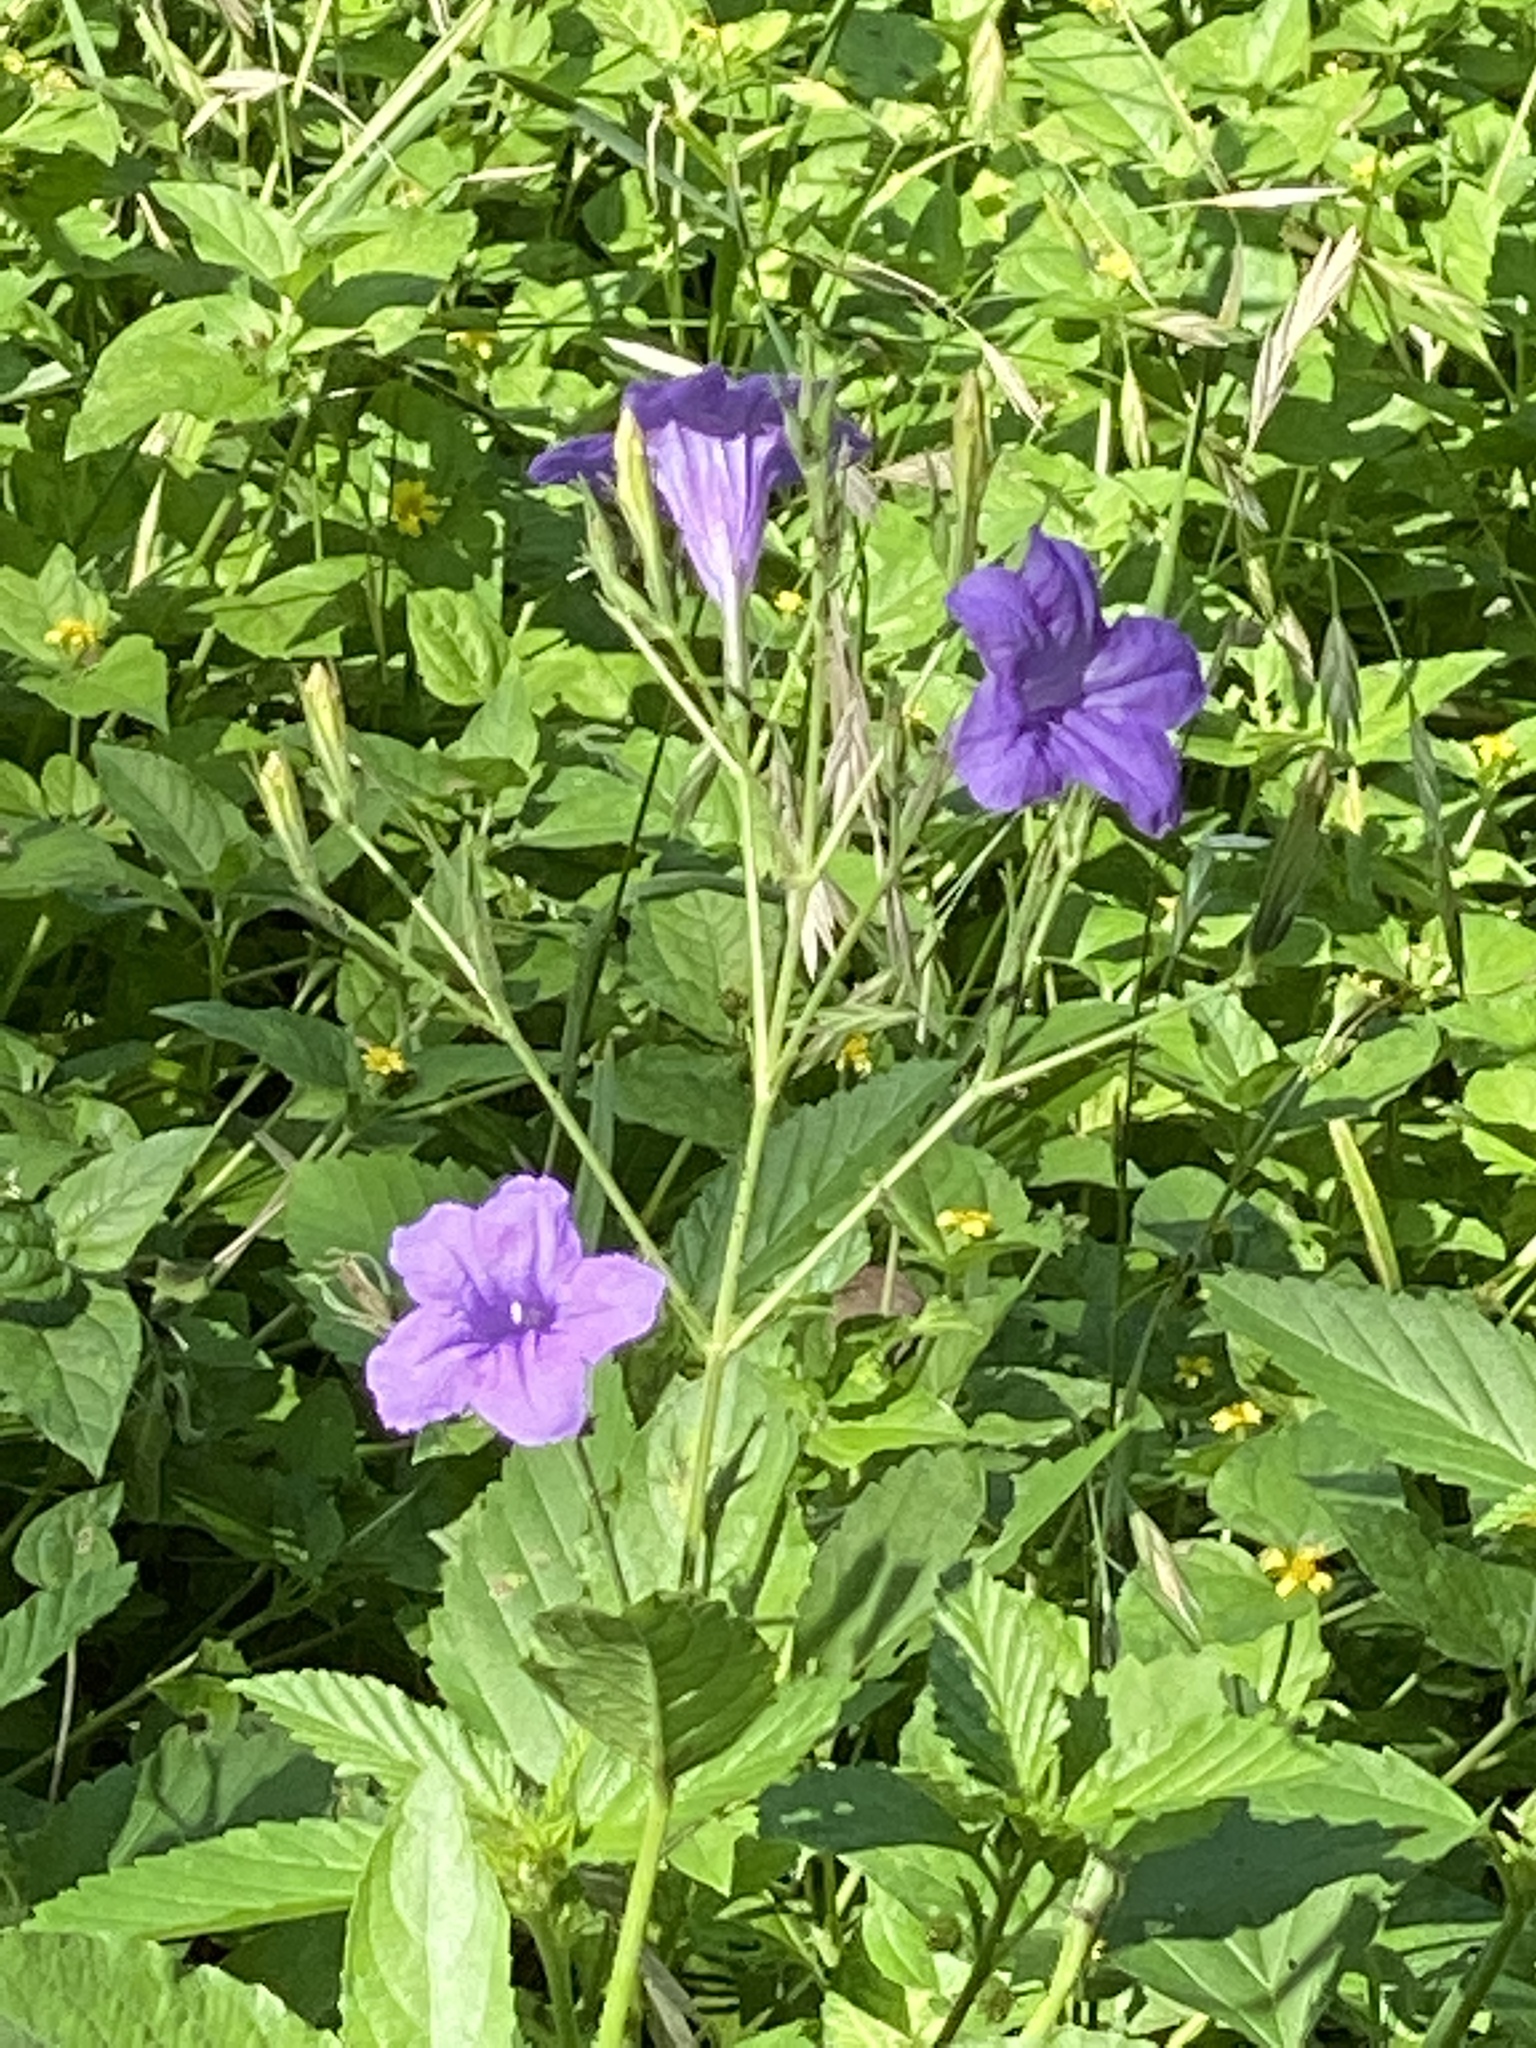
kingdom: Plantae
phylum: Tracheophyta
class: Magnoliopsida
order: Lamiales
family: Acanthaceae
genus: Ruellia
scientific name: Ruellia ciliatiflora
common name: Hairyflower wild petunia
